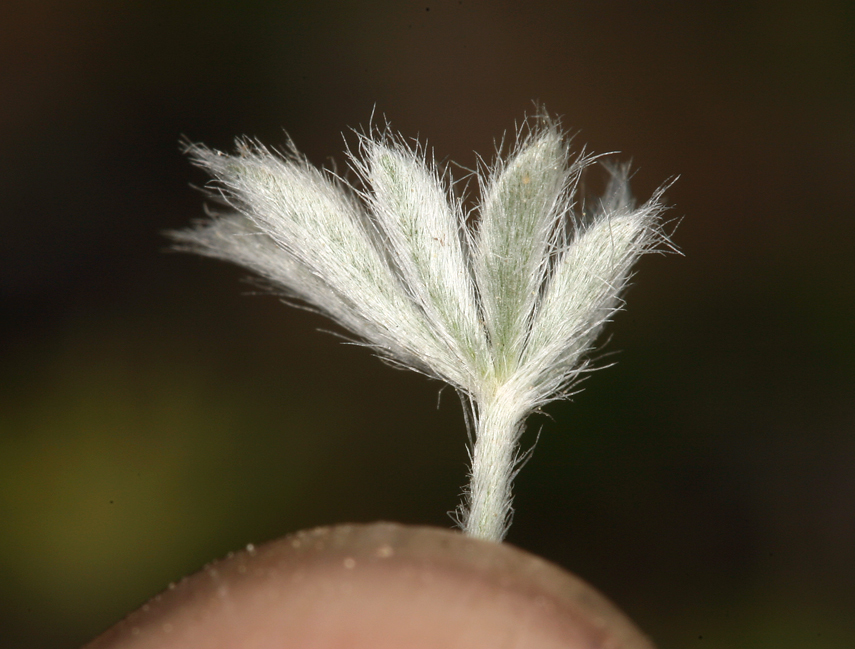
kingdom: Plantae
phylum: Tracheophyta
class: Magnoliopsida
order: Fabales
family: Fabaceae
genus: Lupinus
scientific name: Lupinus breweri
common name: Brewer's lupine
